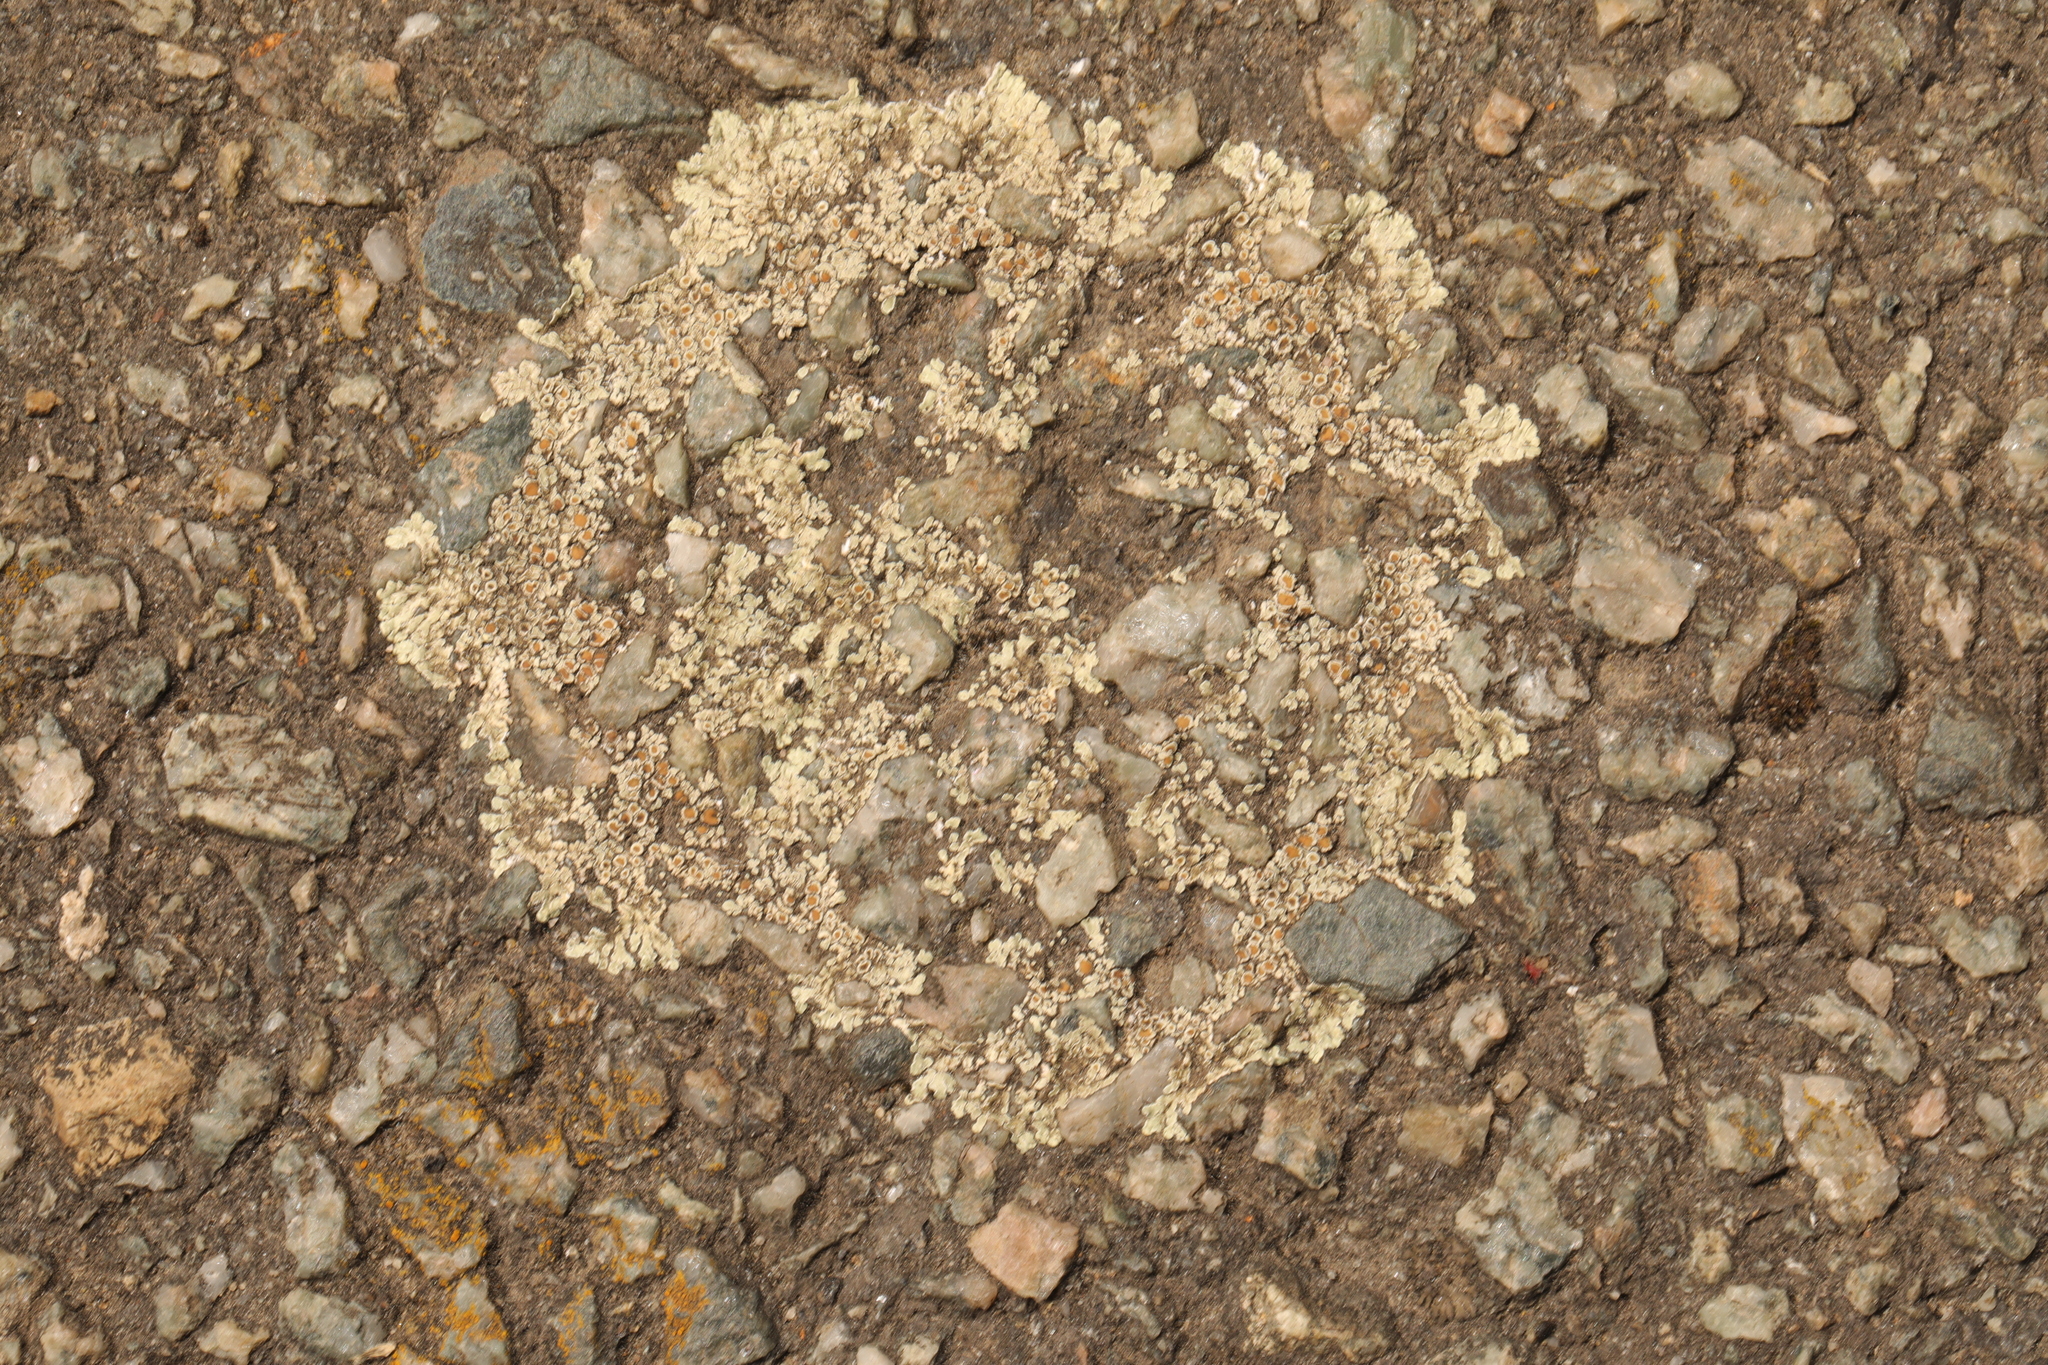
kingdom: Fungi
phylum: Ascomycota
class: Lecanoromycetes
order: Lecanorales
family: Lecanoraceae
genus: Protoparmeliopsis
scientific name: Protoparmeliopsis muralis
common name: Stonewall rim lichen
